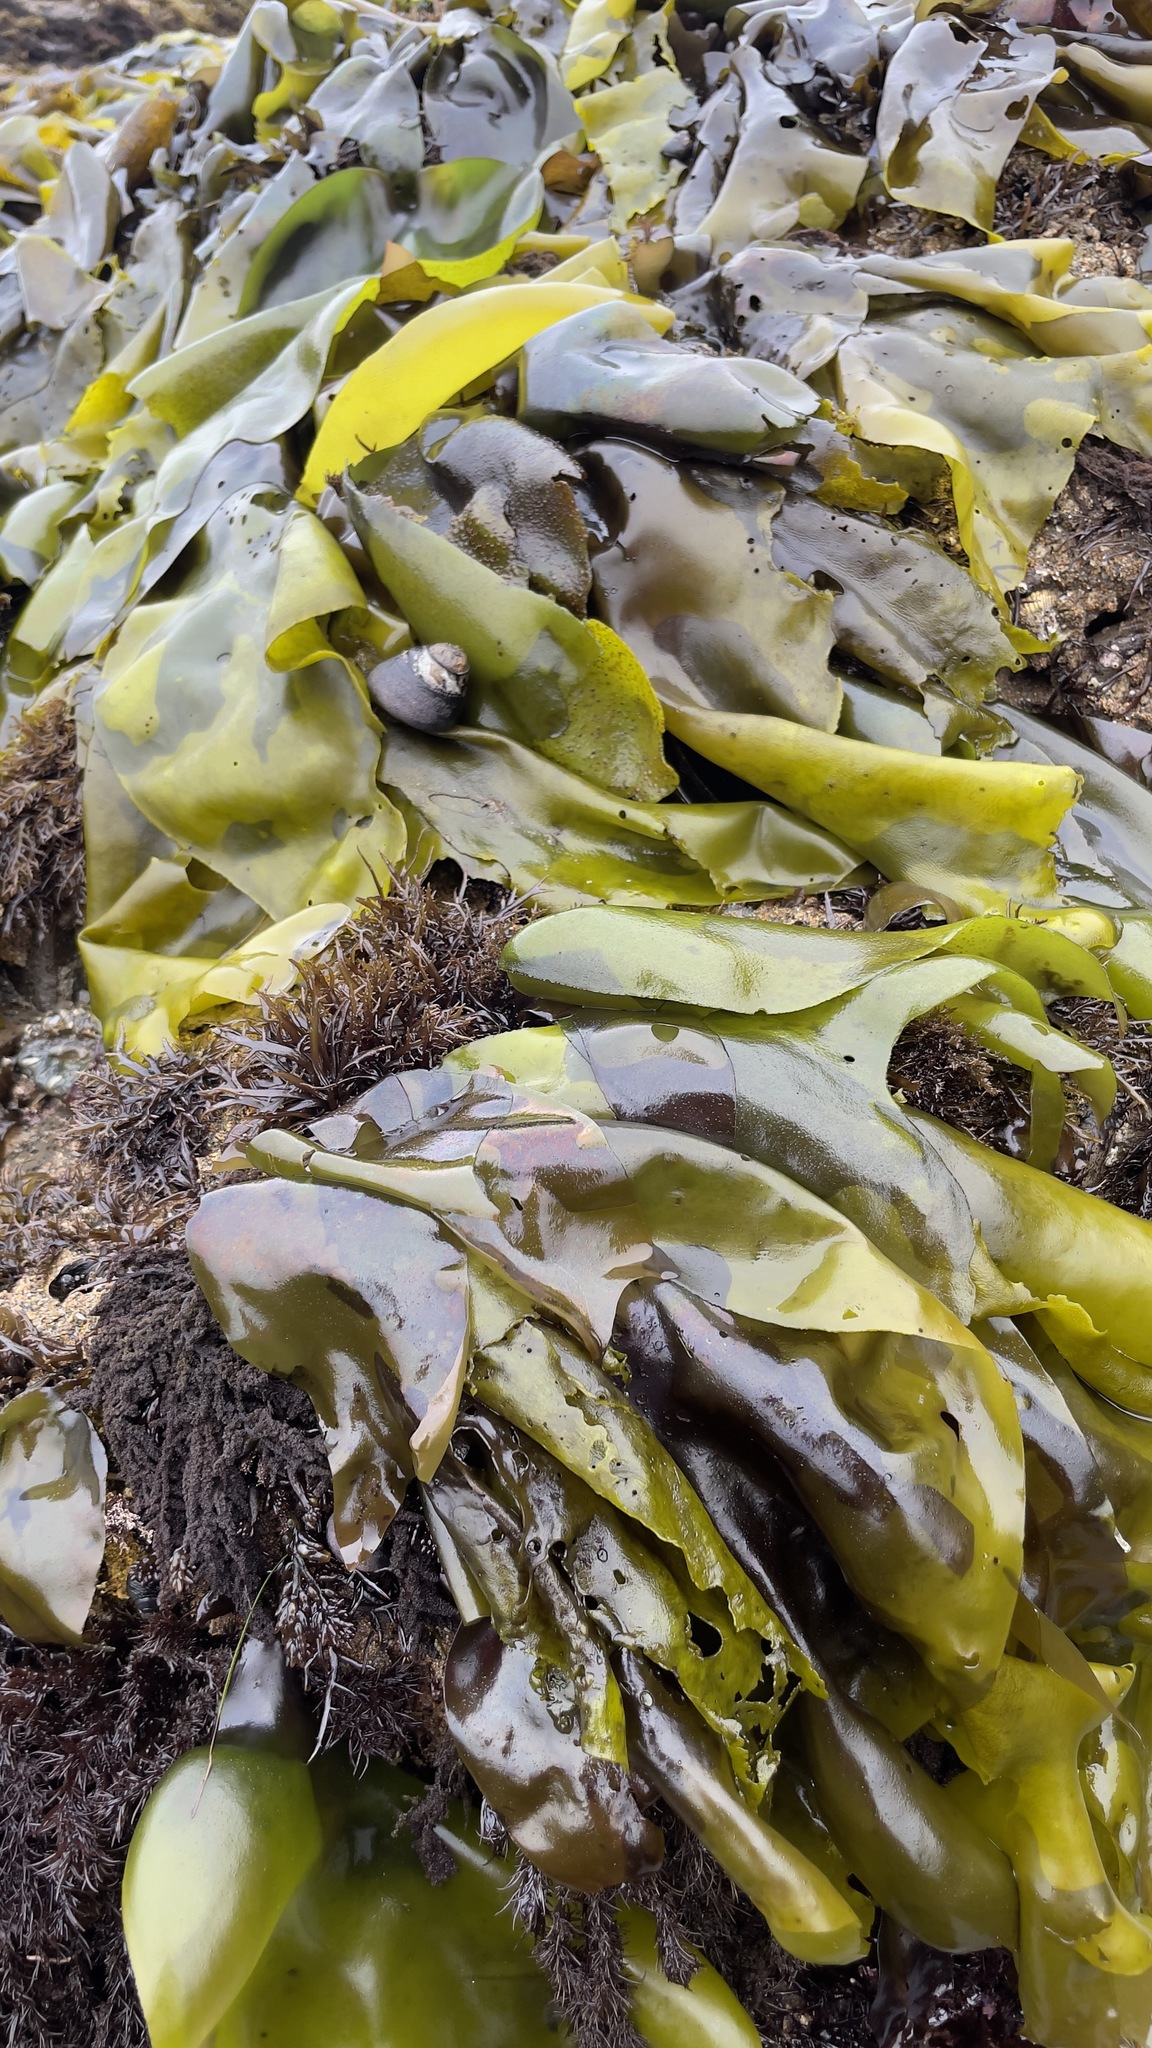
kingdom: Plantae
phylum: Rhodophyta
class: Florideophyceae
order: Gigartinales
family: Gigartinaceae
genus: Mazzaella
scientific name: Mazzaella flaccida
